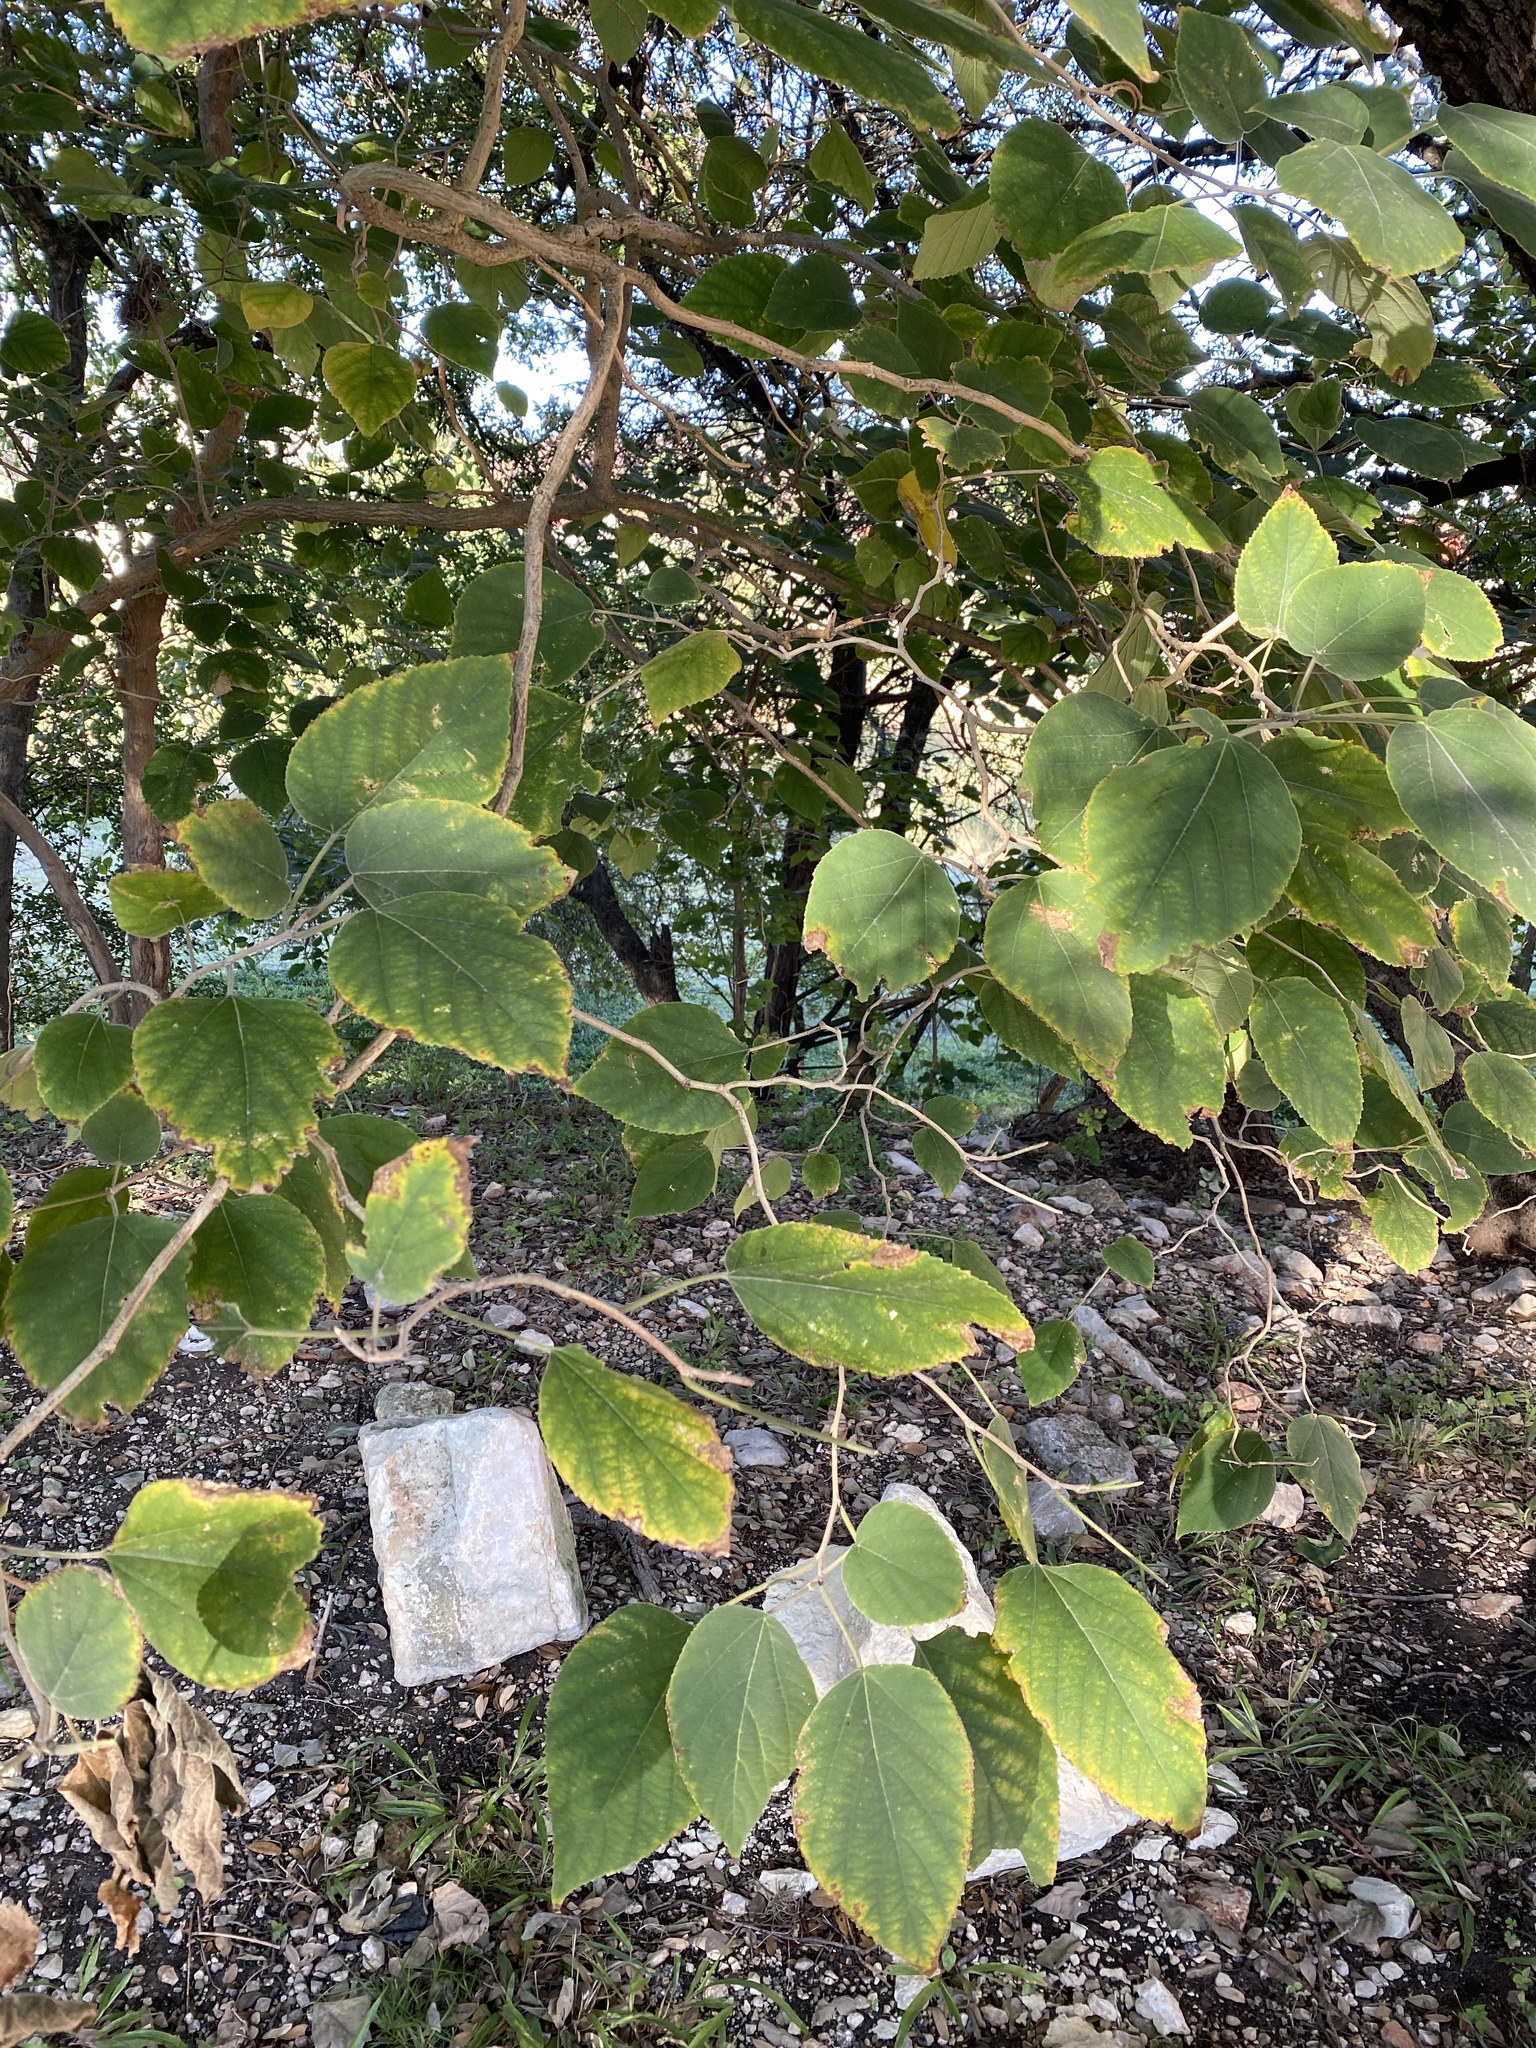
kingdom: Plantae
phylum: Tracheophyta
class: Magnoliopsida
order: Rosales
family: Moraceae
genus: Broussonetia
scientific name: Broussonetia papyrifera
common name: Paper mulberry
